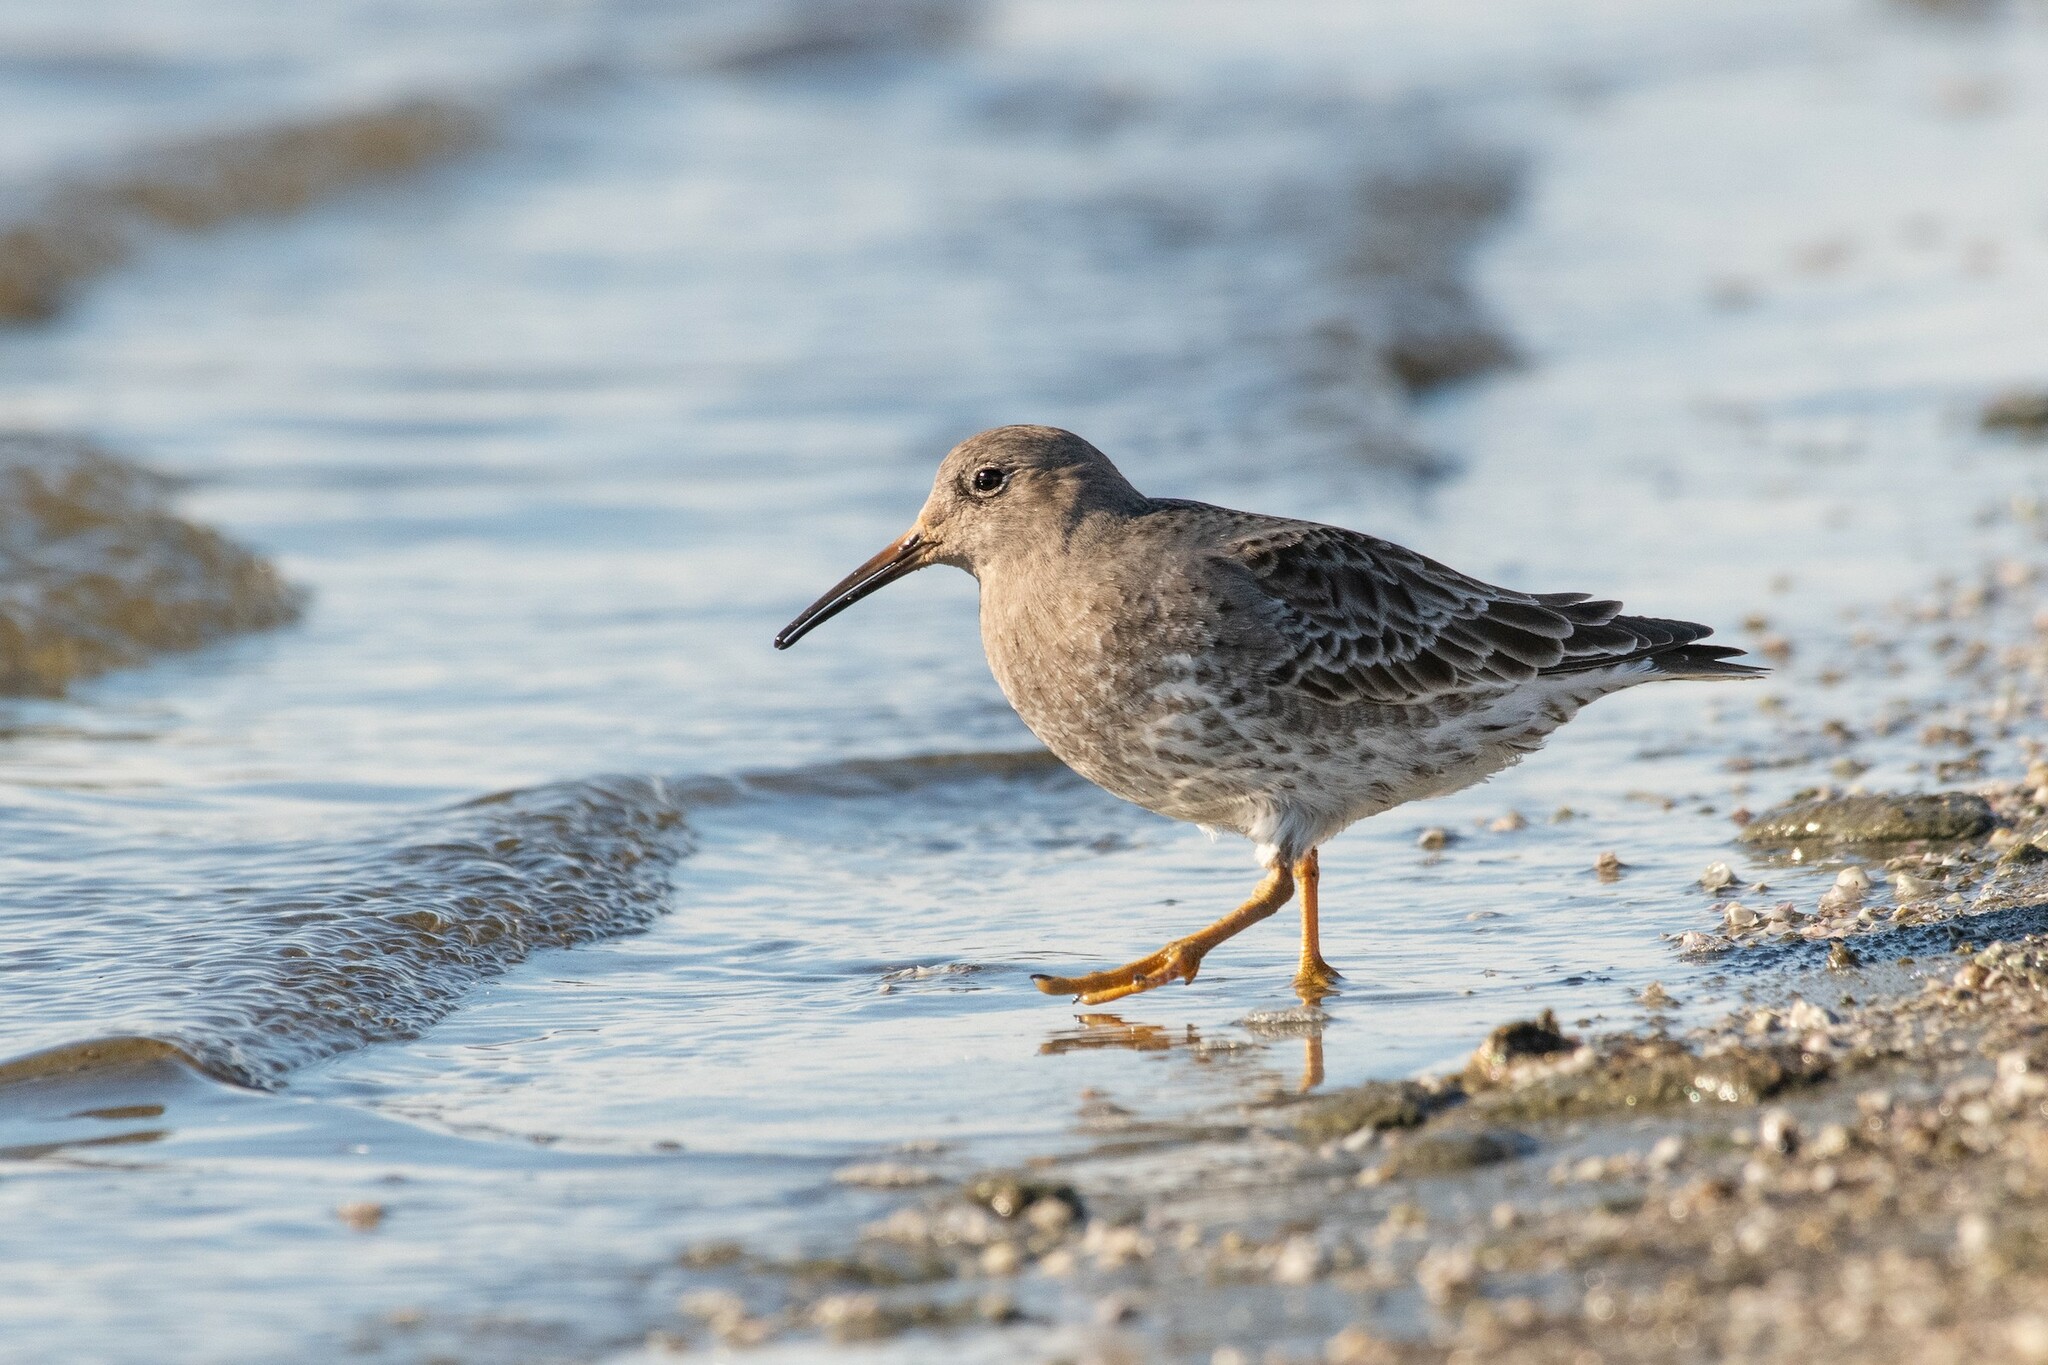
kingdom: Animalia
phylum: Chordata
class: Aves
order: Charadriiformes
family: Scolopacidae
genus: Calidris
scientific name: Calidris maritima
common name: Purple sandpiper
